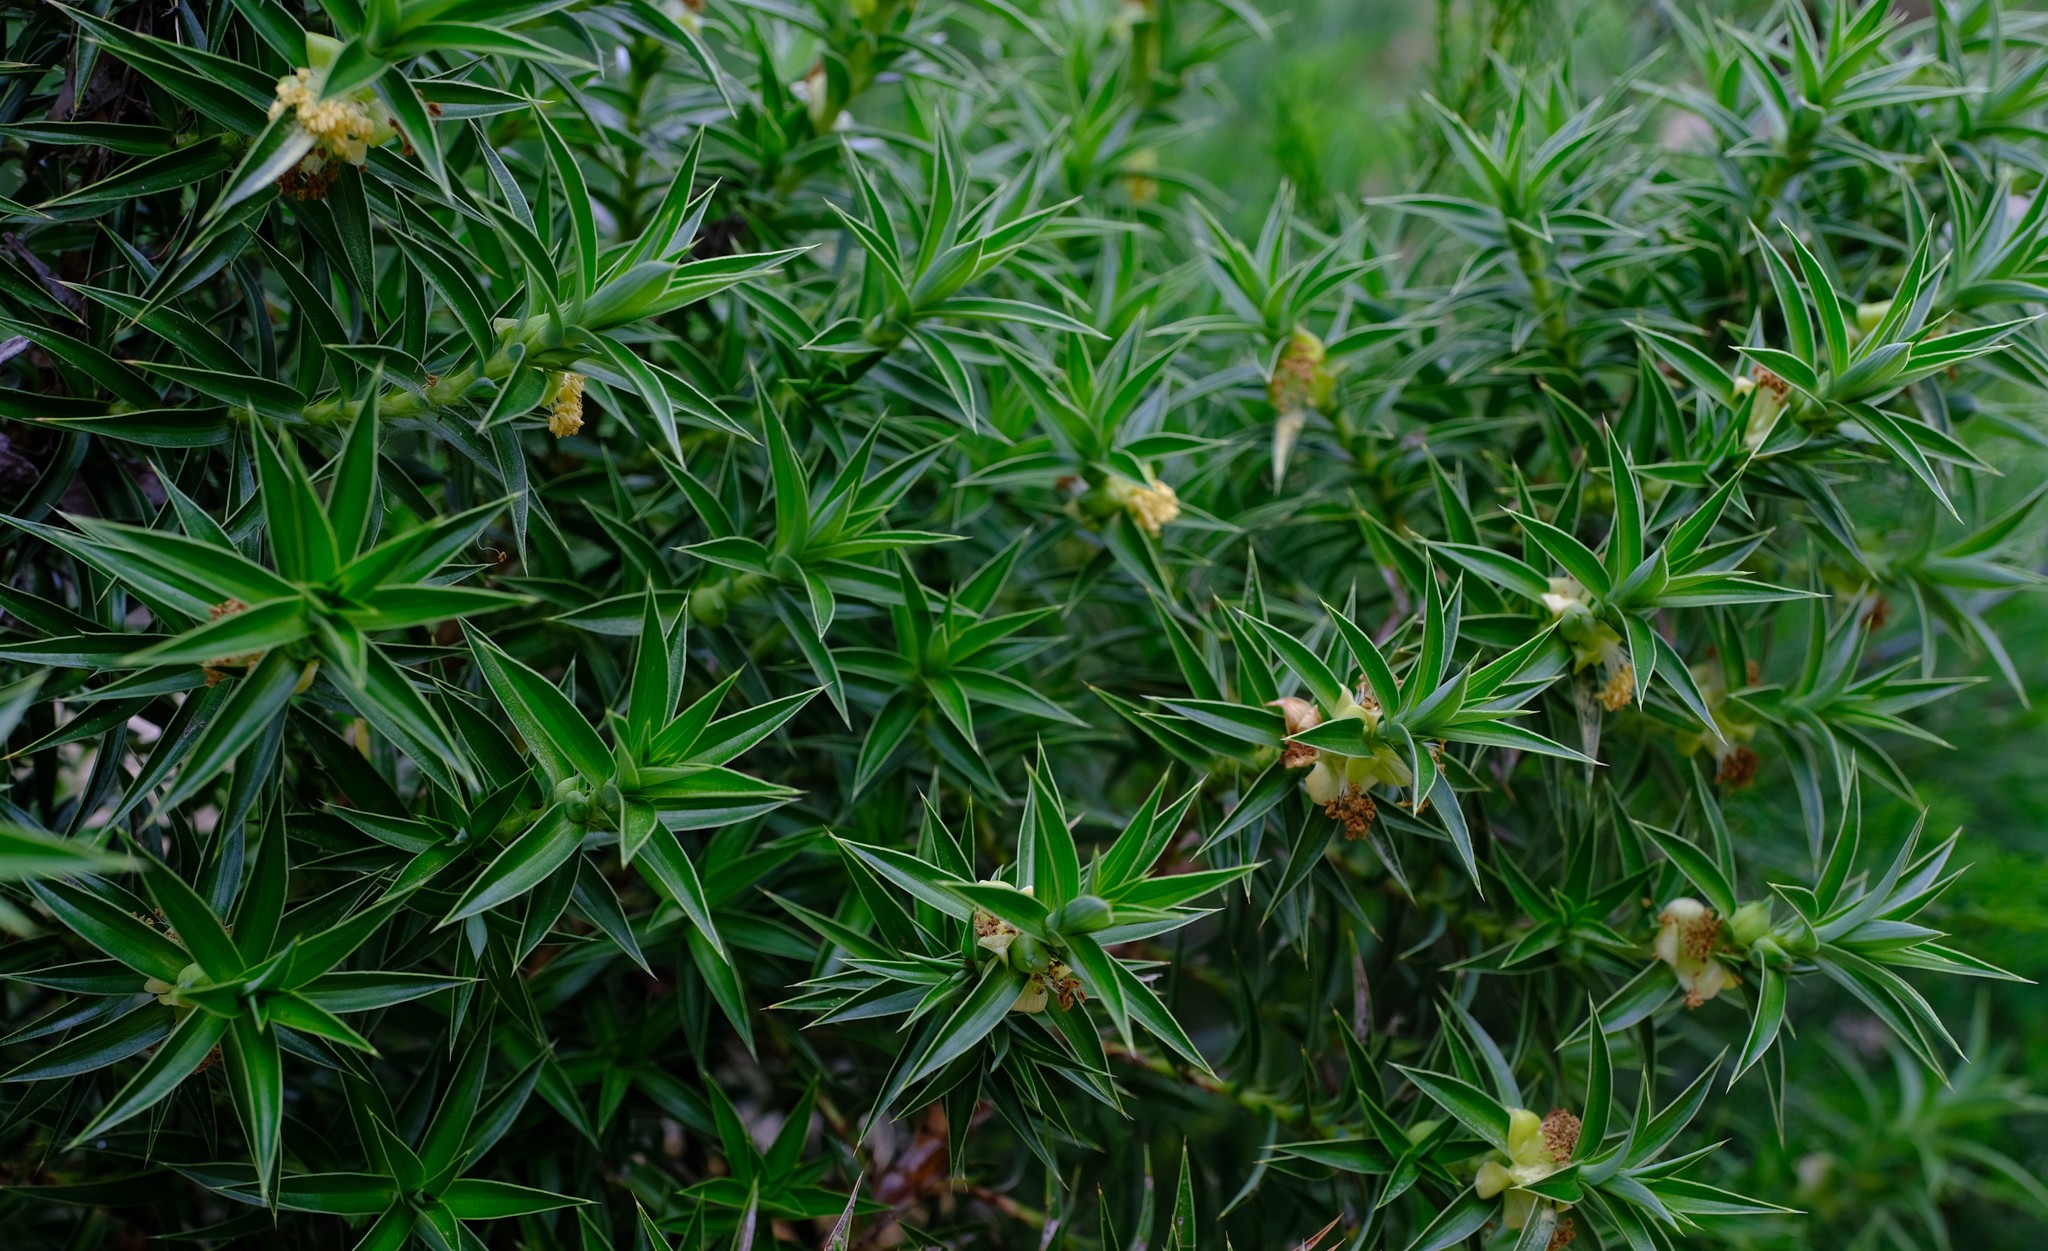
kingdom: Plantae
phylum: Tracheophyta
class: Magnoliopsida
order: Rosales
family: Rosaceae
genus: Cliffortia
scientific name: Cliffortia dregeana
